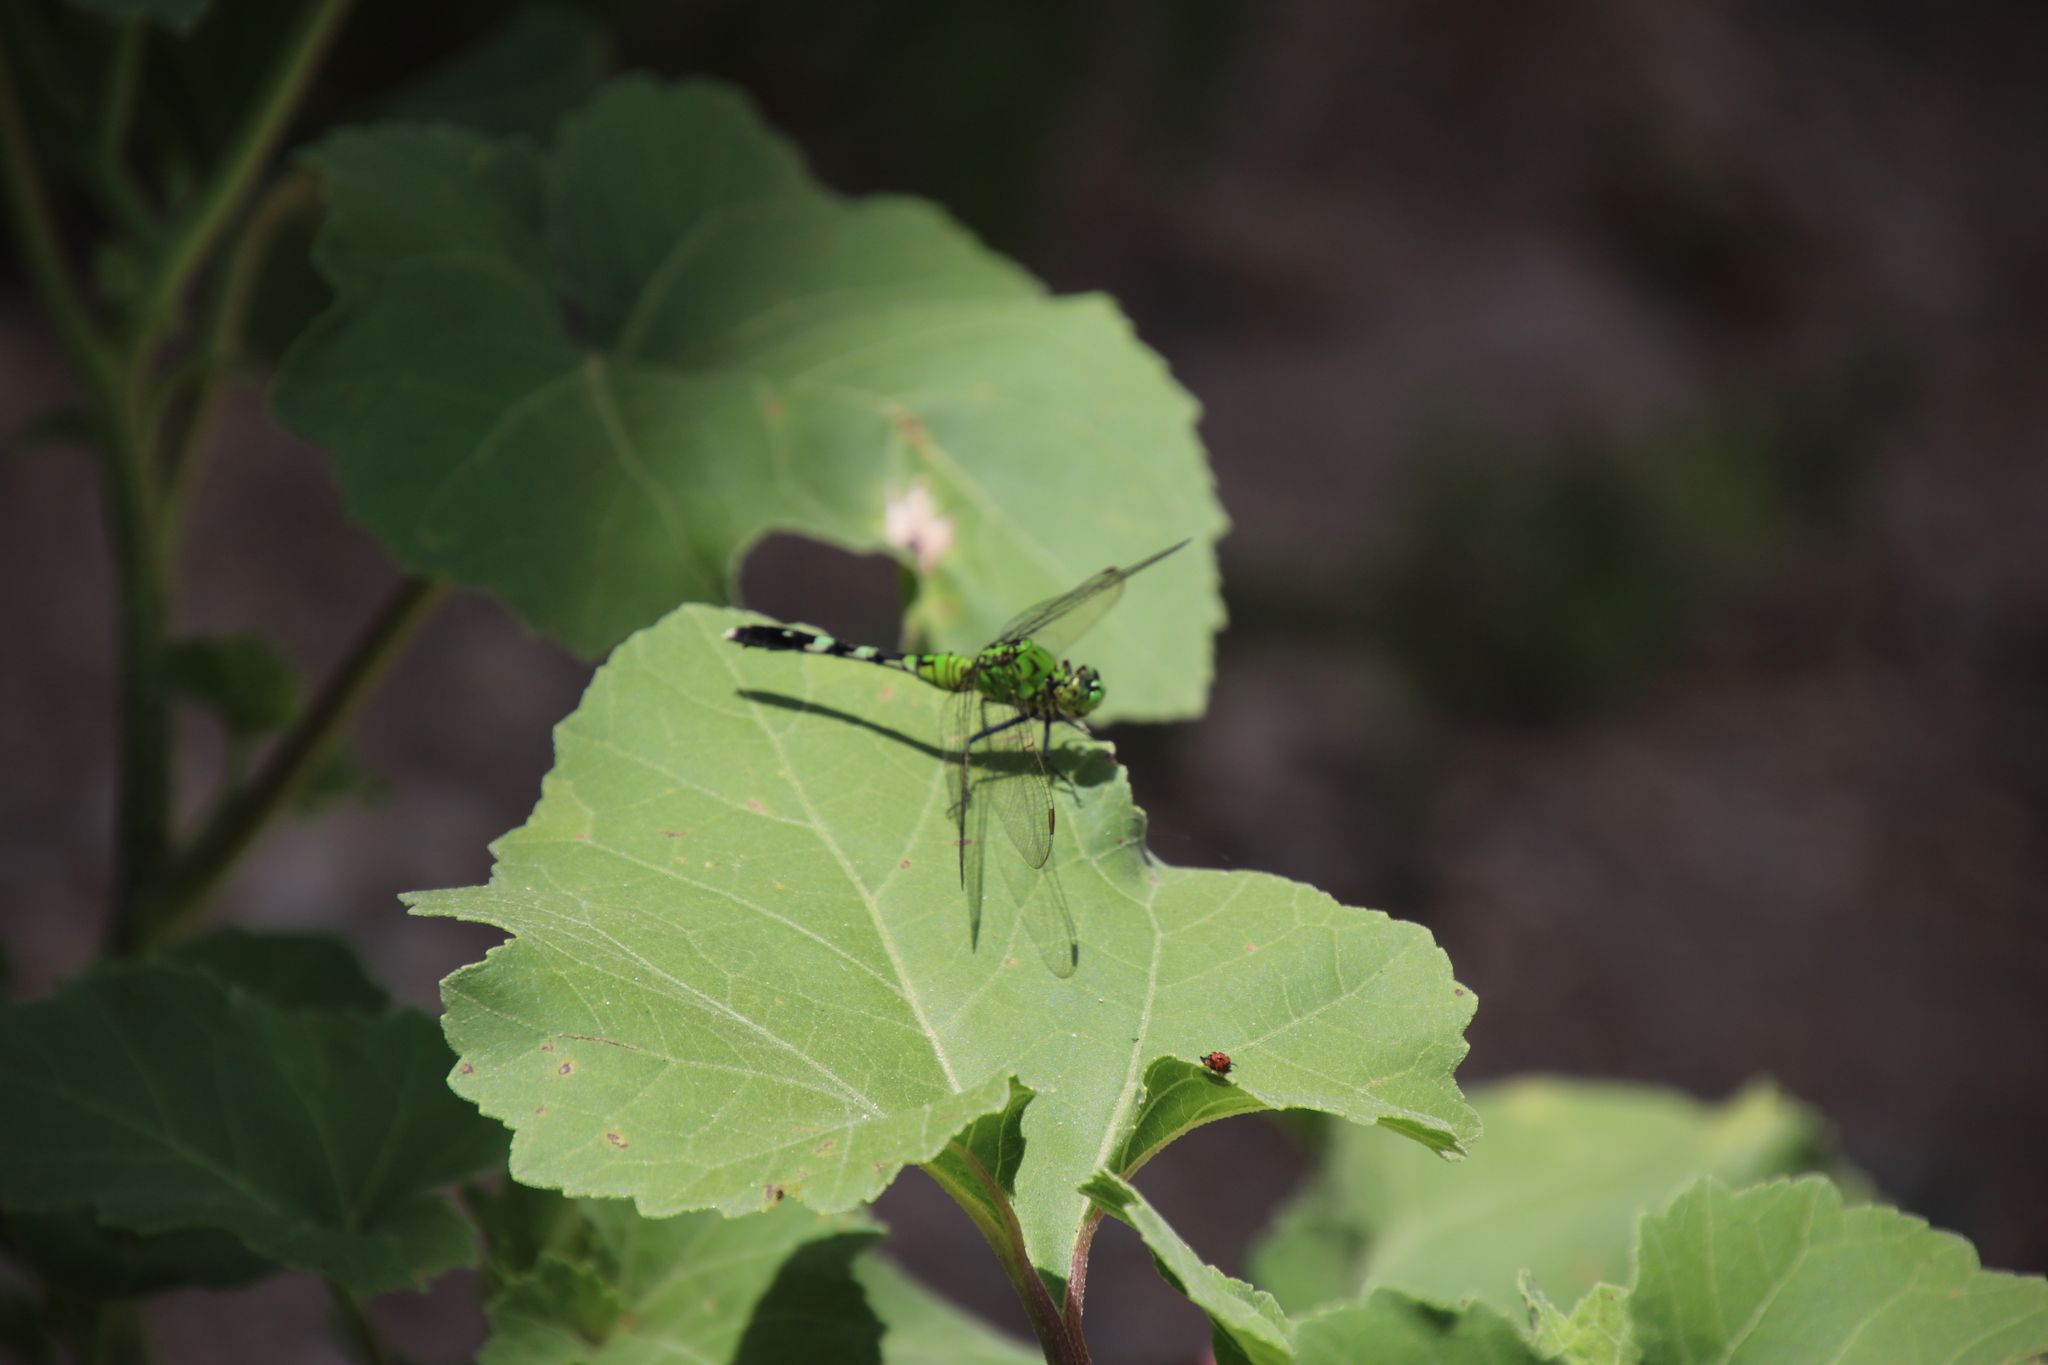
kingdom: Animalia
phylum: Arthropoda
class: Insecta
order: Odonata
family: Libellulidae
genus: Erythemis
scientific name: Erythemis simplicicollis
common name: Eastern pondhawk
